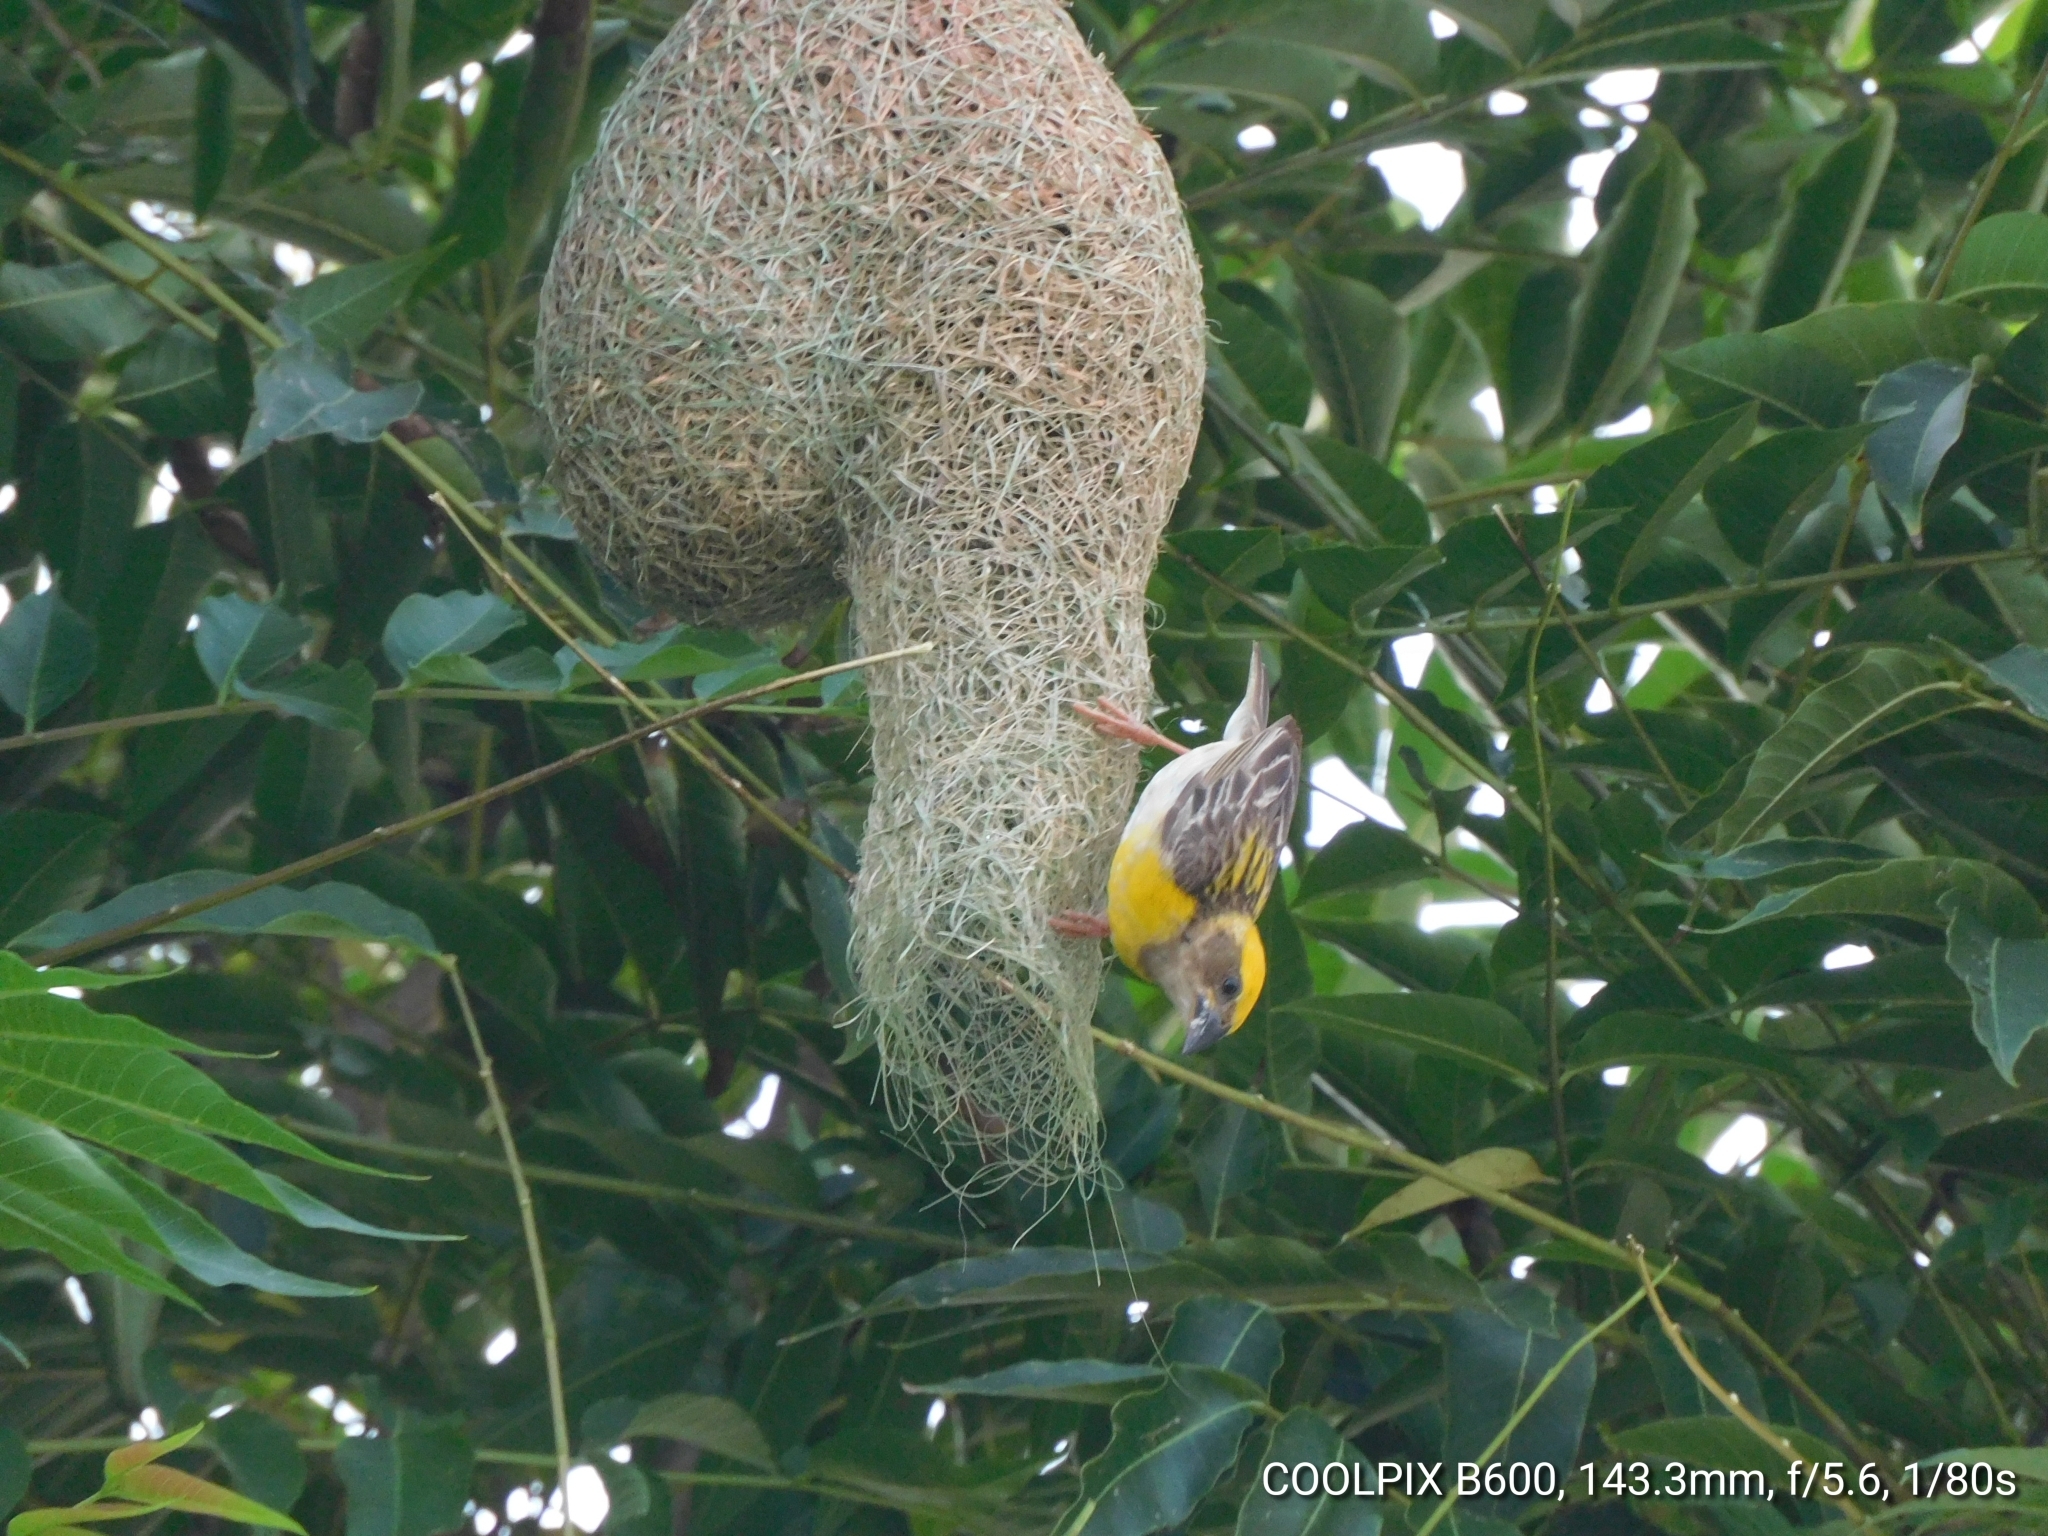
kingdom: Animalia
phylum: Chordata
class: Aves
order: Passeriformes
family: Ploceidae
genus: Ploceus
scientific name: Ploceus philippinus
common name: Baya weaver
